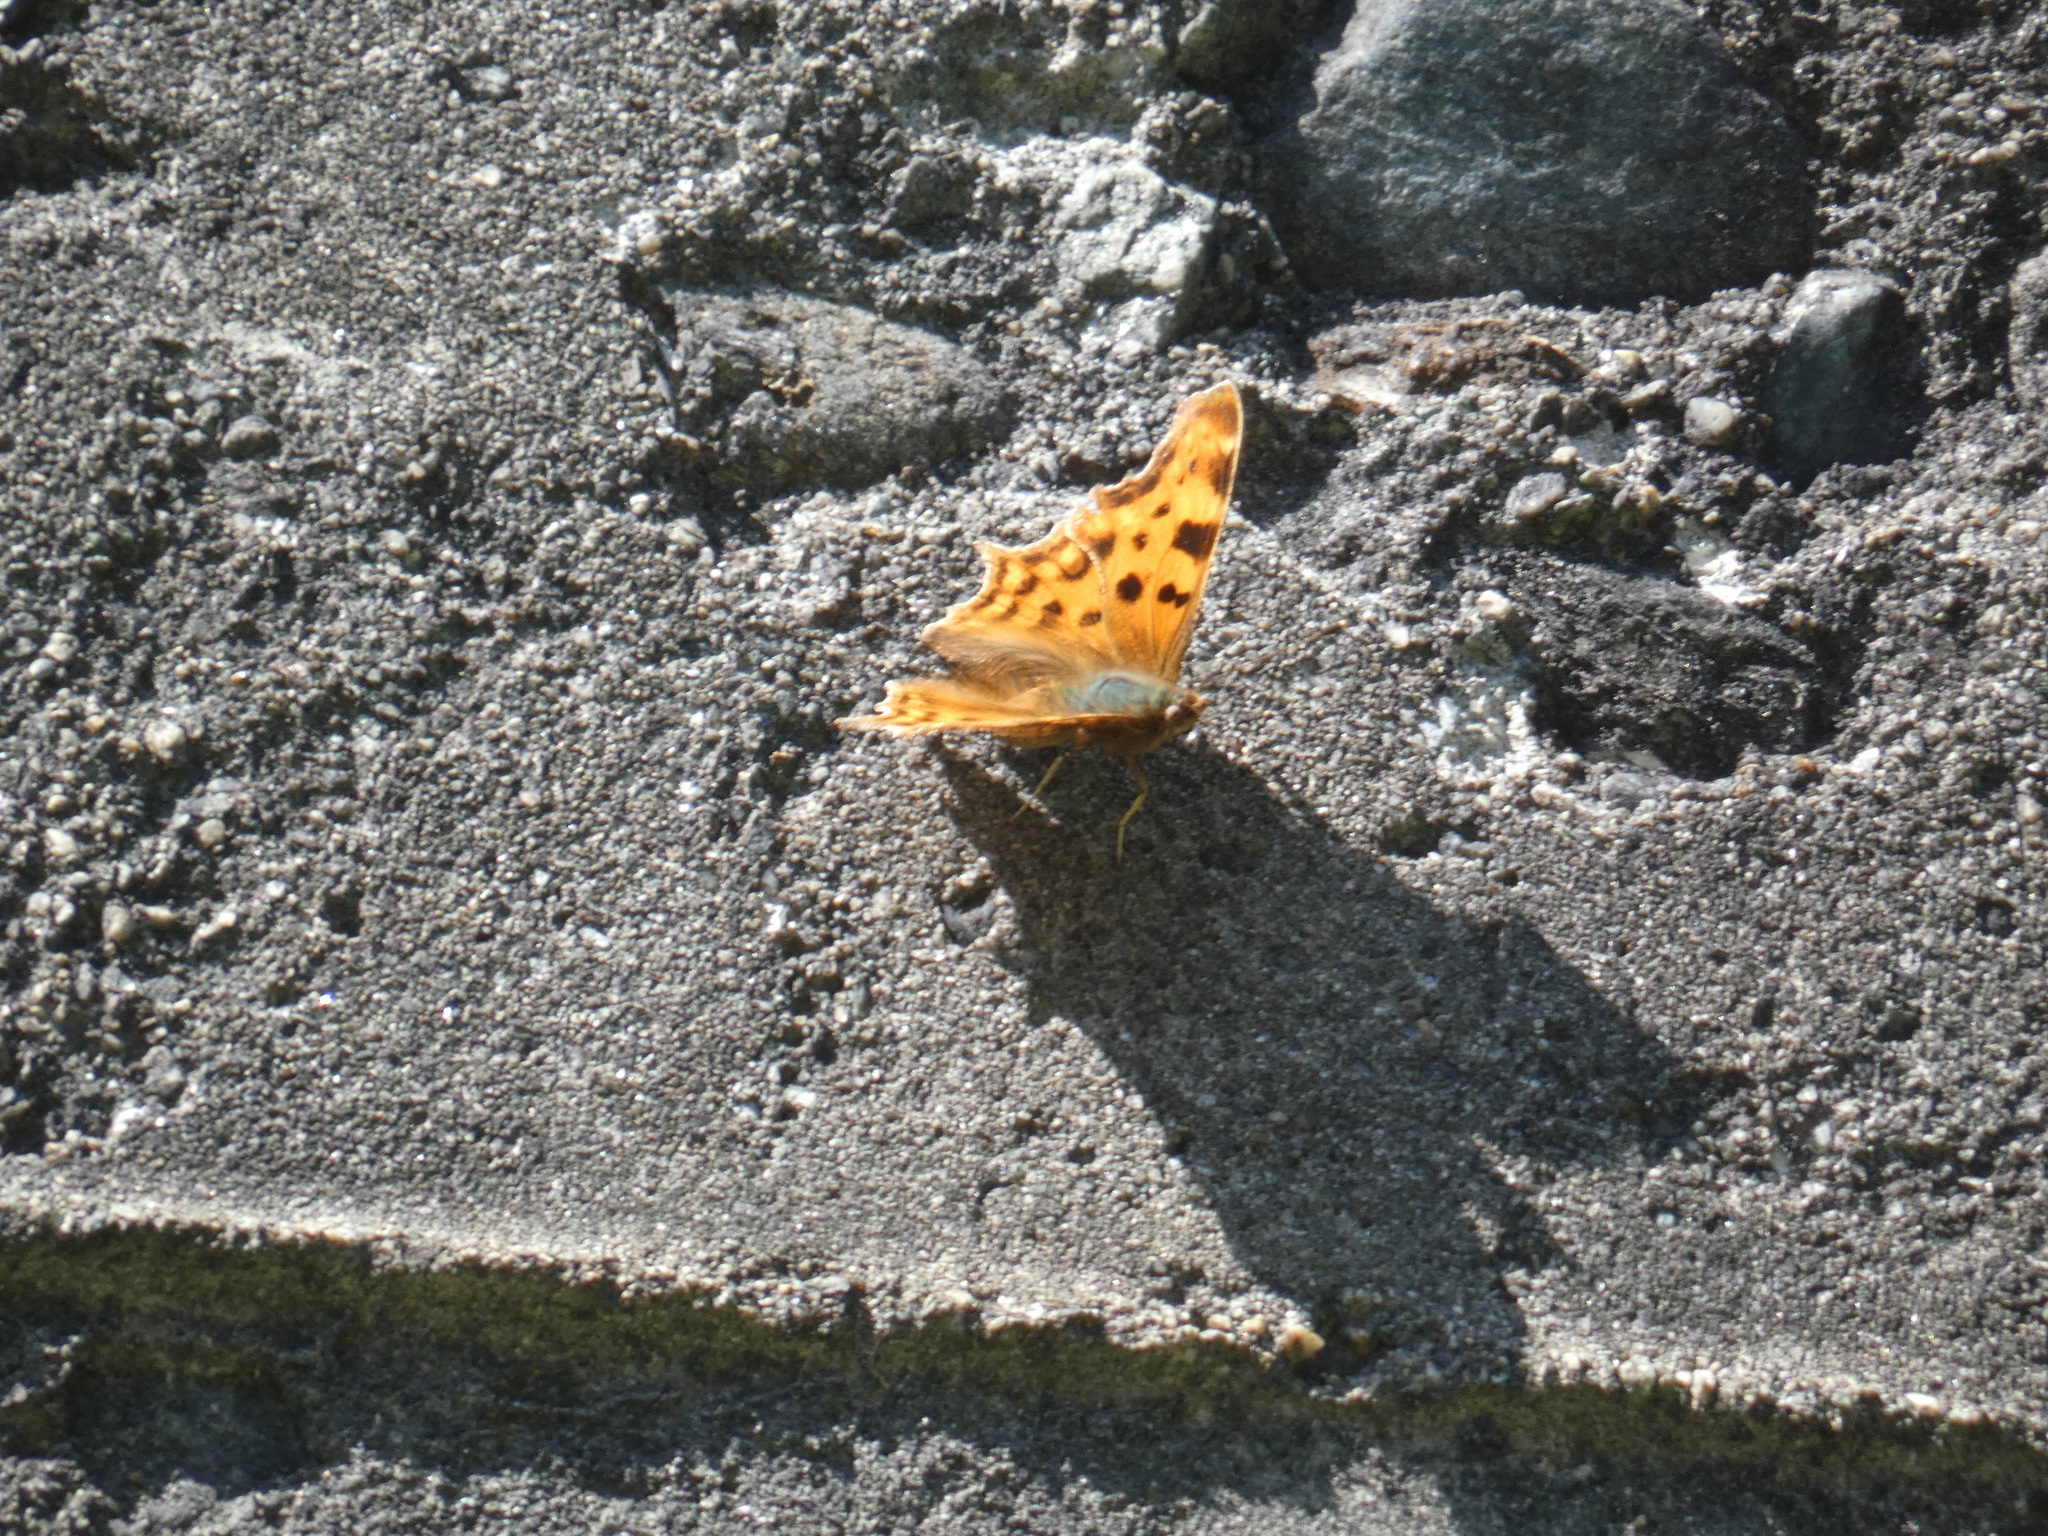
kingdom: Animalia
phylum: Arthropoda
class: Insecta
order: Lepidoptera
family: Nymphalidae
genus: Polygonia
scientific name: Polygonia c-album
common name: Comma
